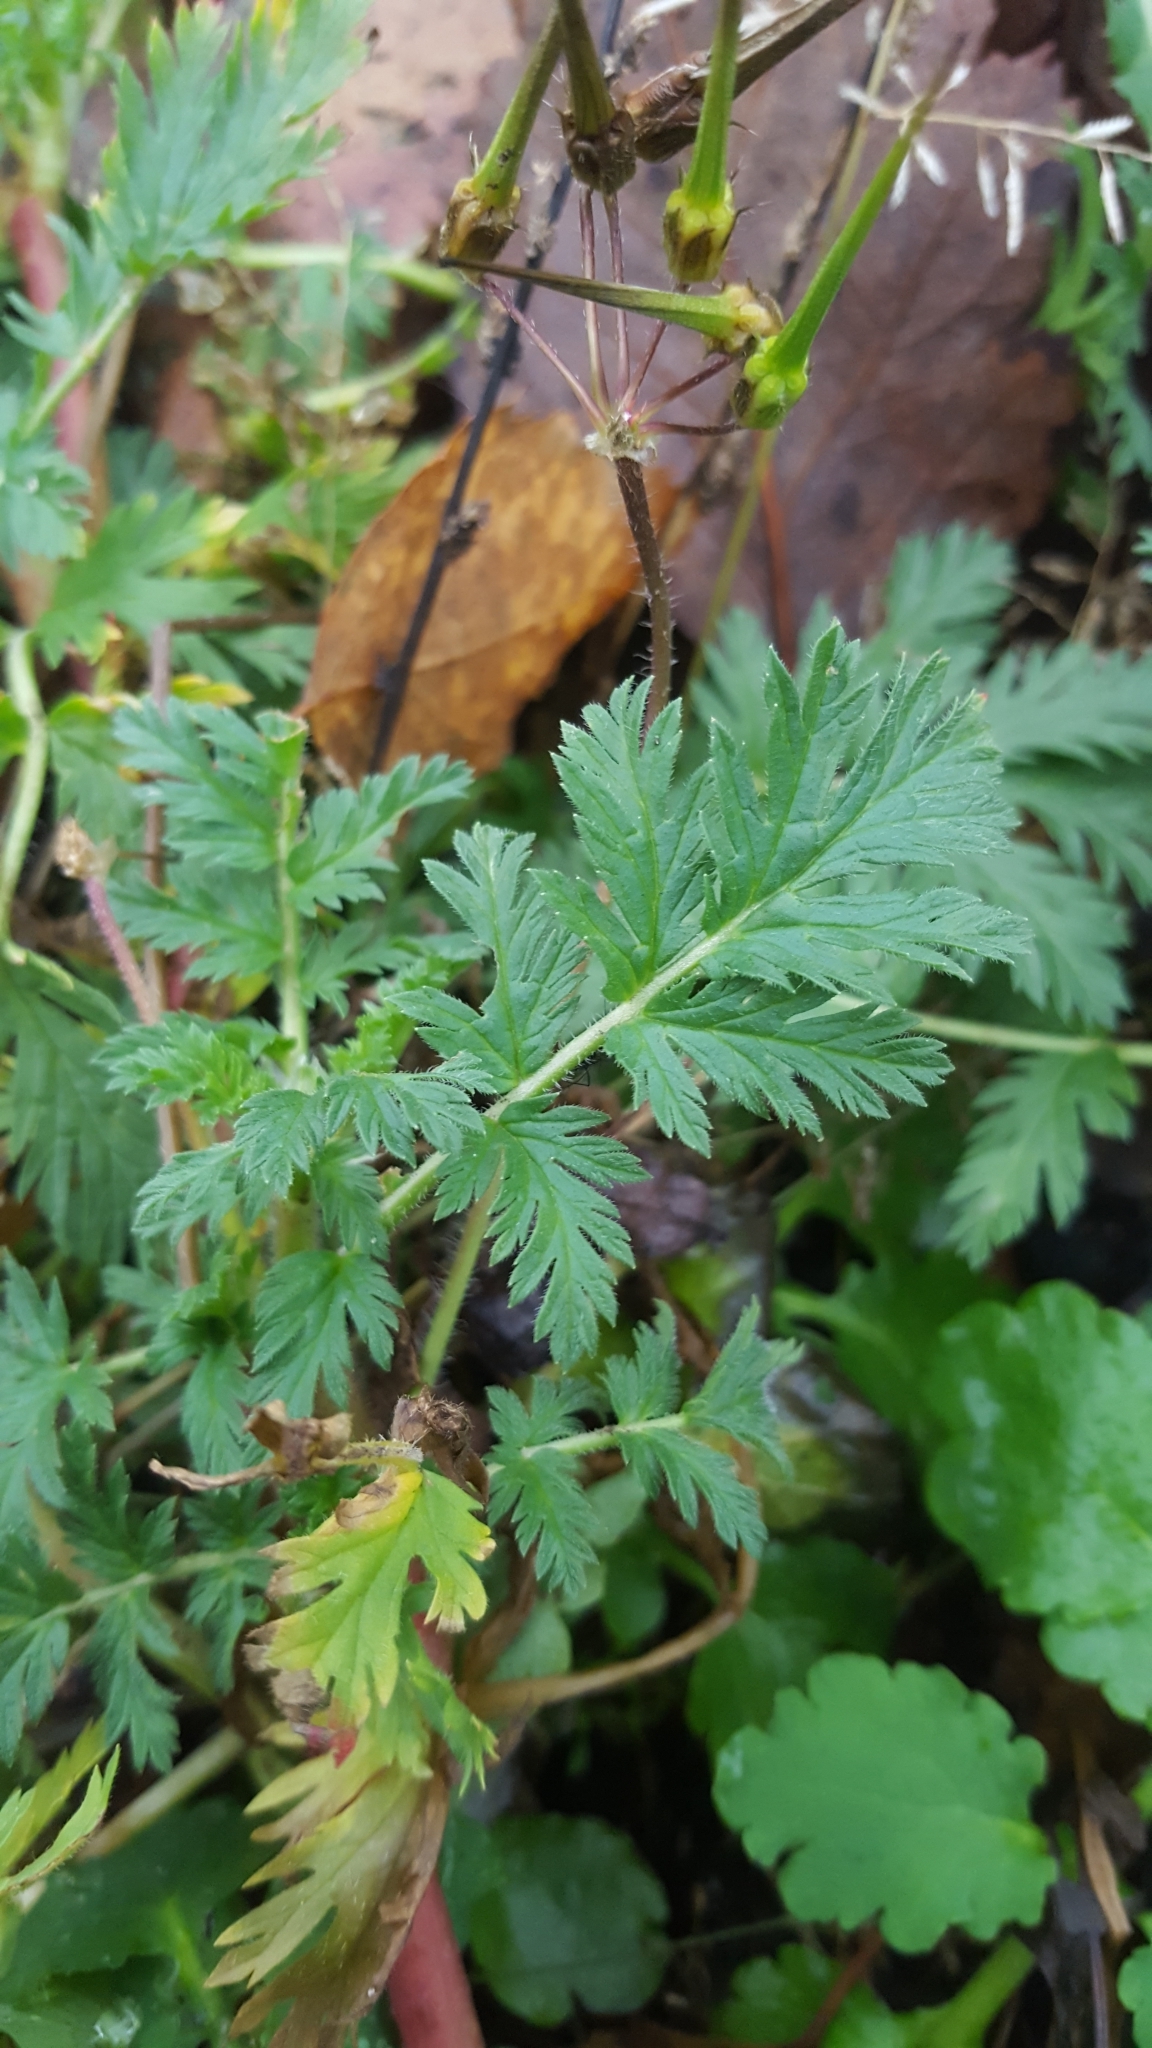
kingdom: Plantae
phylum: Tracheophyta
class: Magnoliopsida
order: Geraniales
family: Geraniaceae
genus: Erodium
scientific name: Erodium cicutarium
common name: Common stork's-bill
